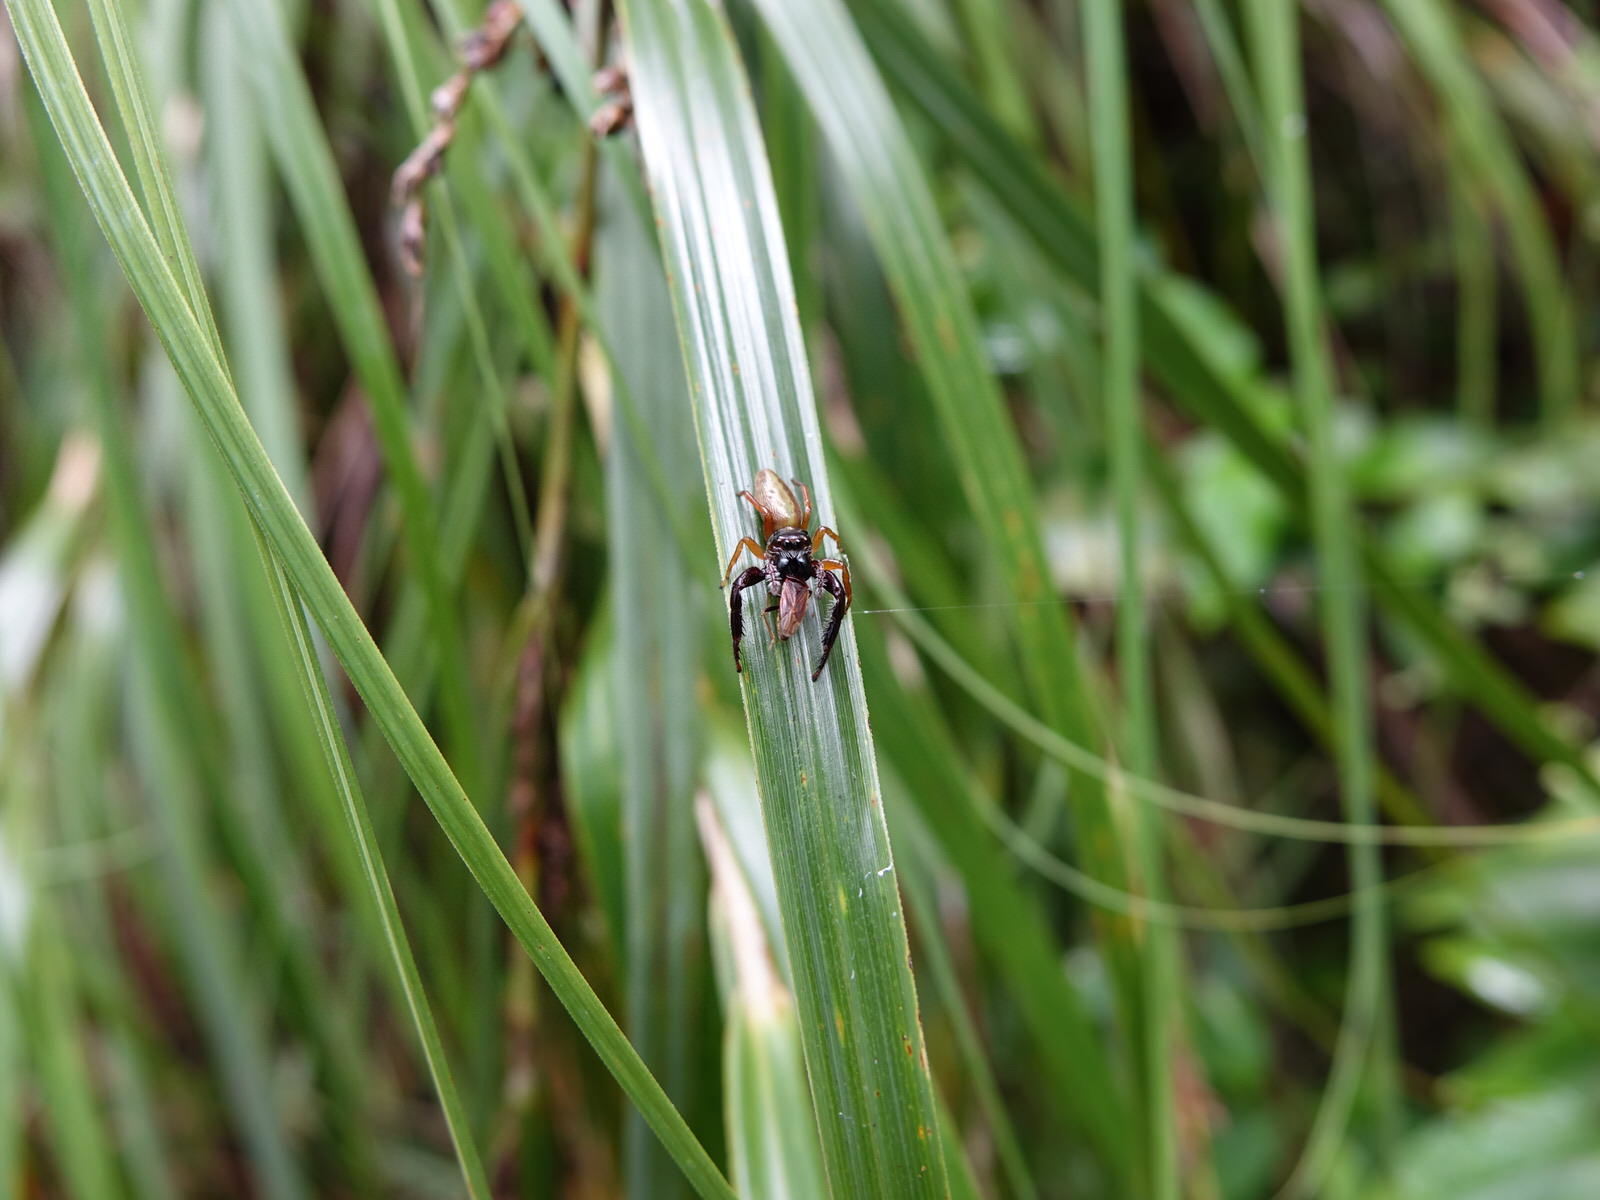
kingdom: Animalia
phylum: Arthropoda
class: Arachnida
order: Araneae
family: Salticidae
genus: Trite
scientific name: Trite planiceps
